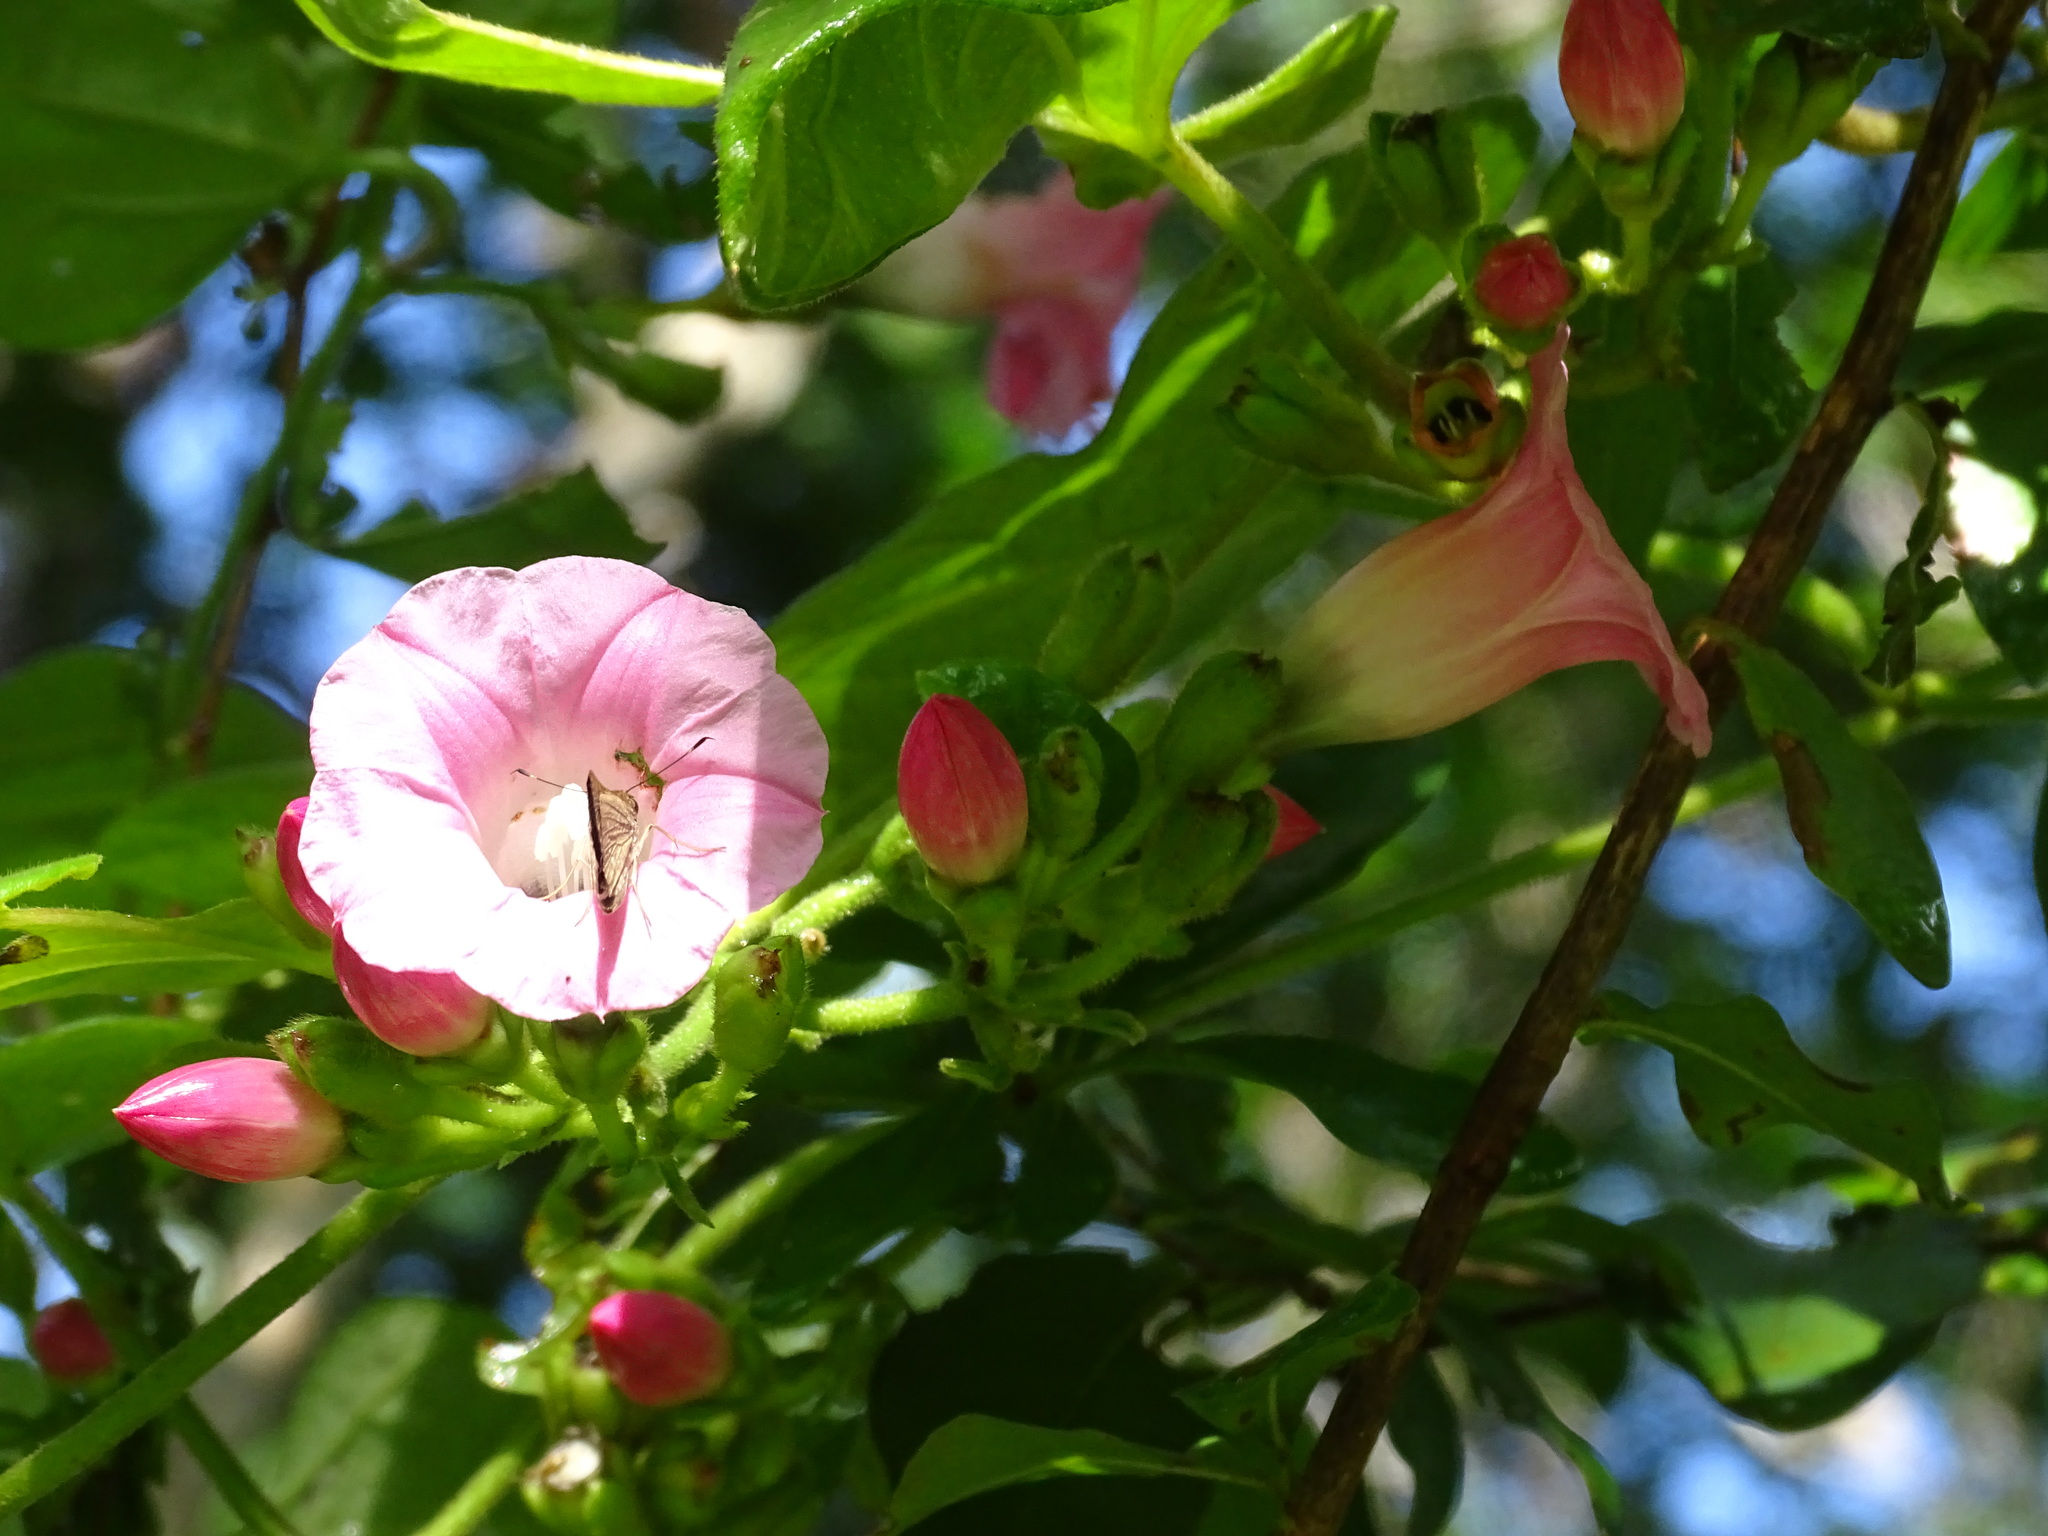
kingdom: Plantae
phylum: Tracheophyta
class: Magnoliopsida
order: Solanales
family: Convolvulaceae
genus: Ipomoea
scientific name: Ipomoea peteri
